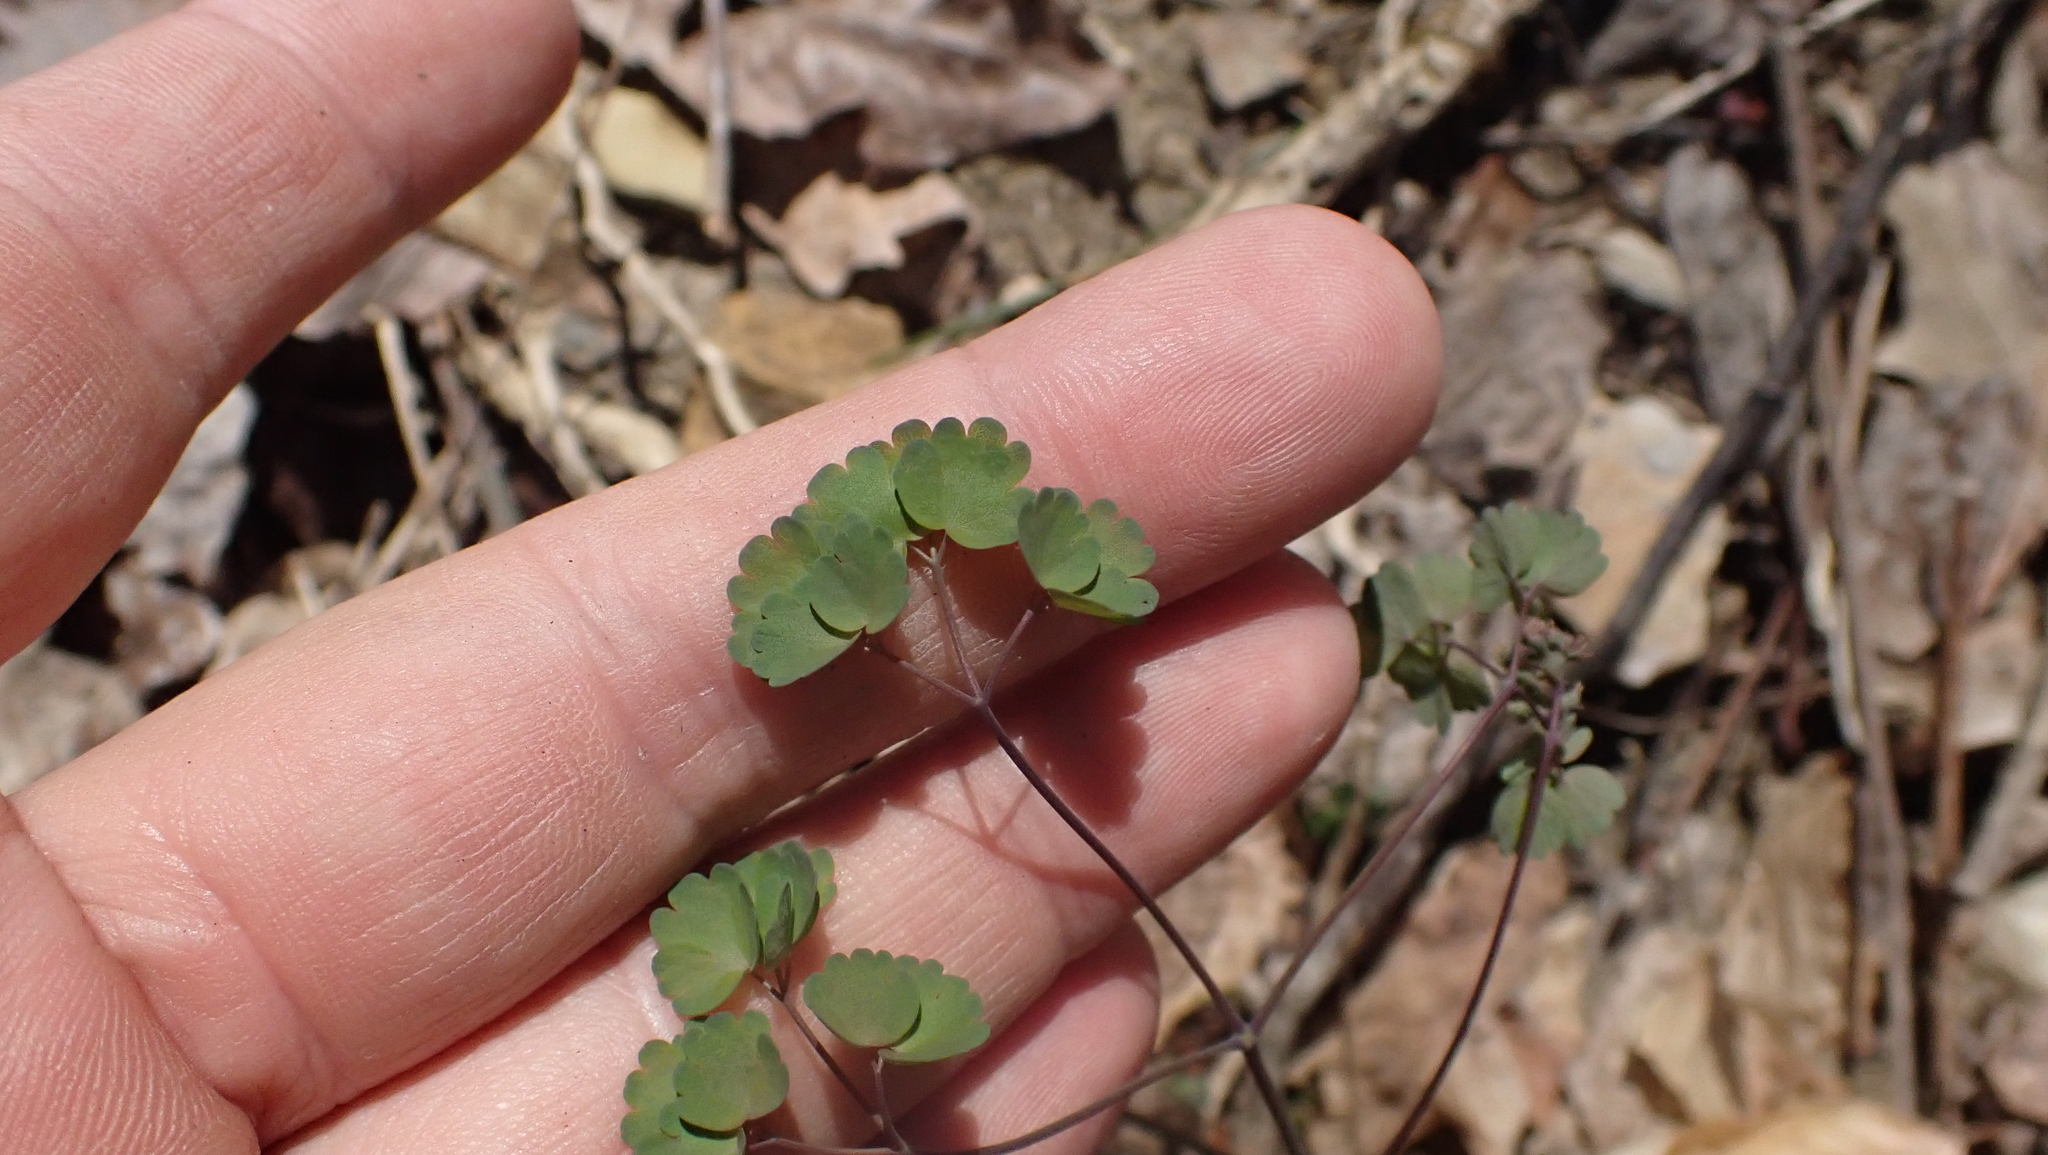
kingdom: Plantae
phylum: Tracheophyta
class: Magnoliopsida
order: Ranunculales
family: Ranunculaceae
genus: Thalictrum
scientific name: Thalictrum dioicum
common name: Early meadow-rue
